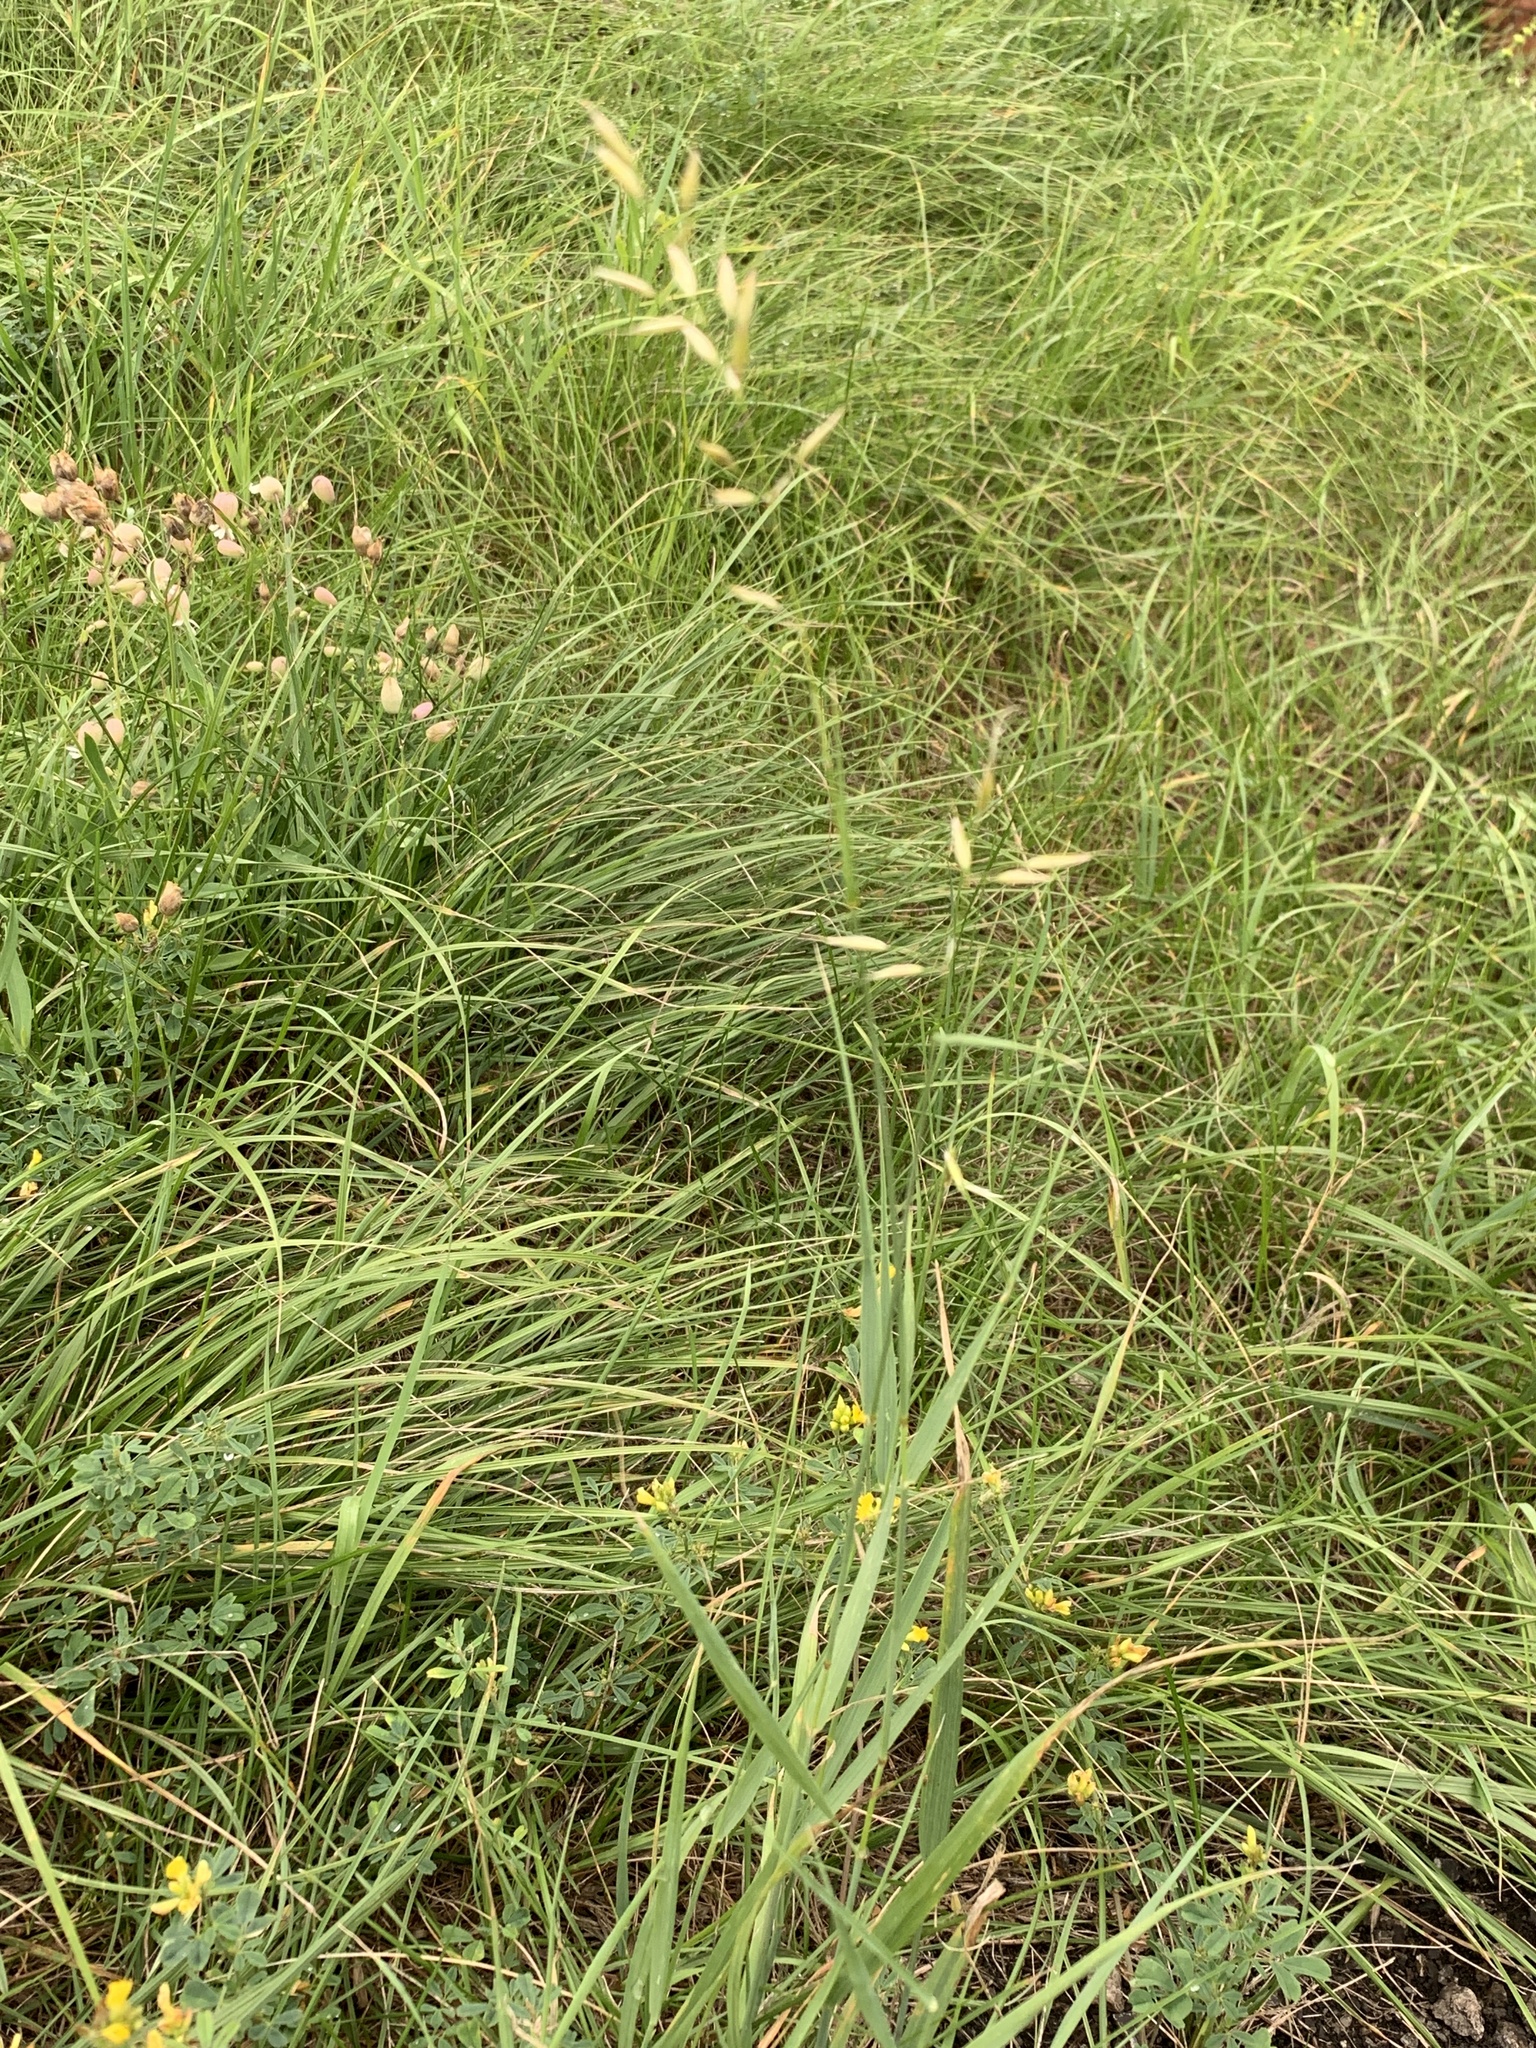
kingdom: Plantae
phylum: Tracheophyta
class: Liliopsida
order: Poales
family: Poaceae
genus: Arrhenatherum
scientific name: Arrhenatherum elatius
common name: Tall oatgrass
